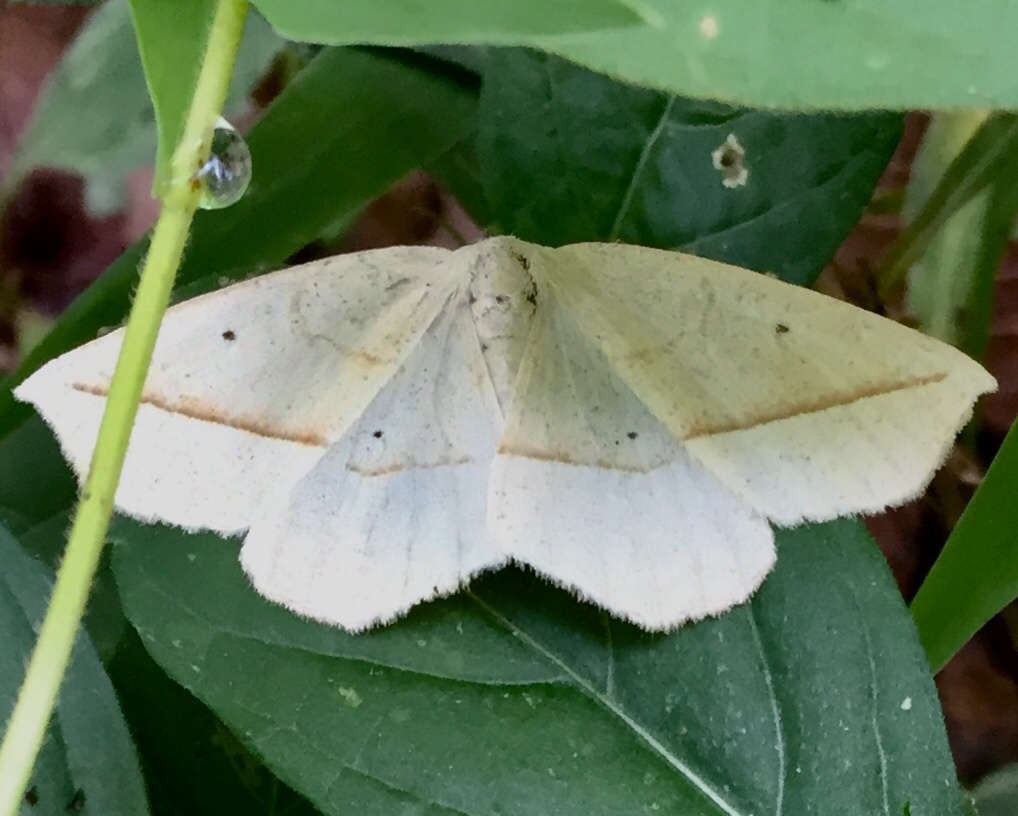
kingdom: Animalia
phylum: Arthropoda
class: Insecta
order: Lepidoptera
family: Geometridae
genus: Eusarca
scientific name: Eusarca confusaria
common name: Confused eusarca
